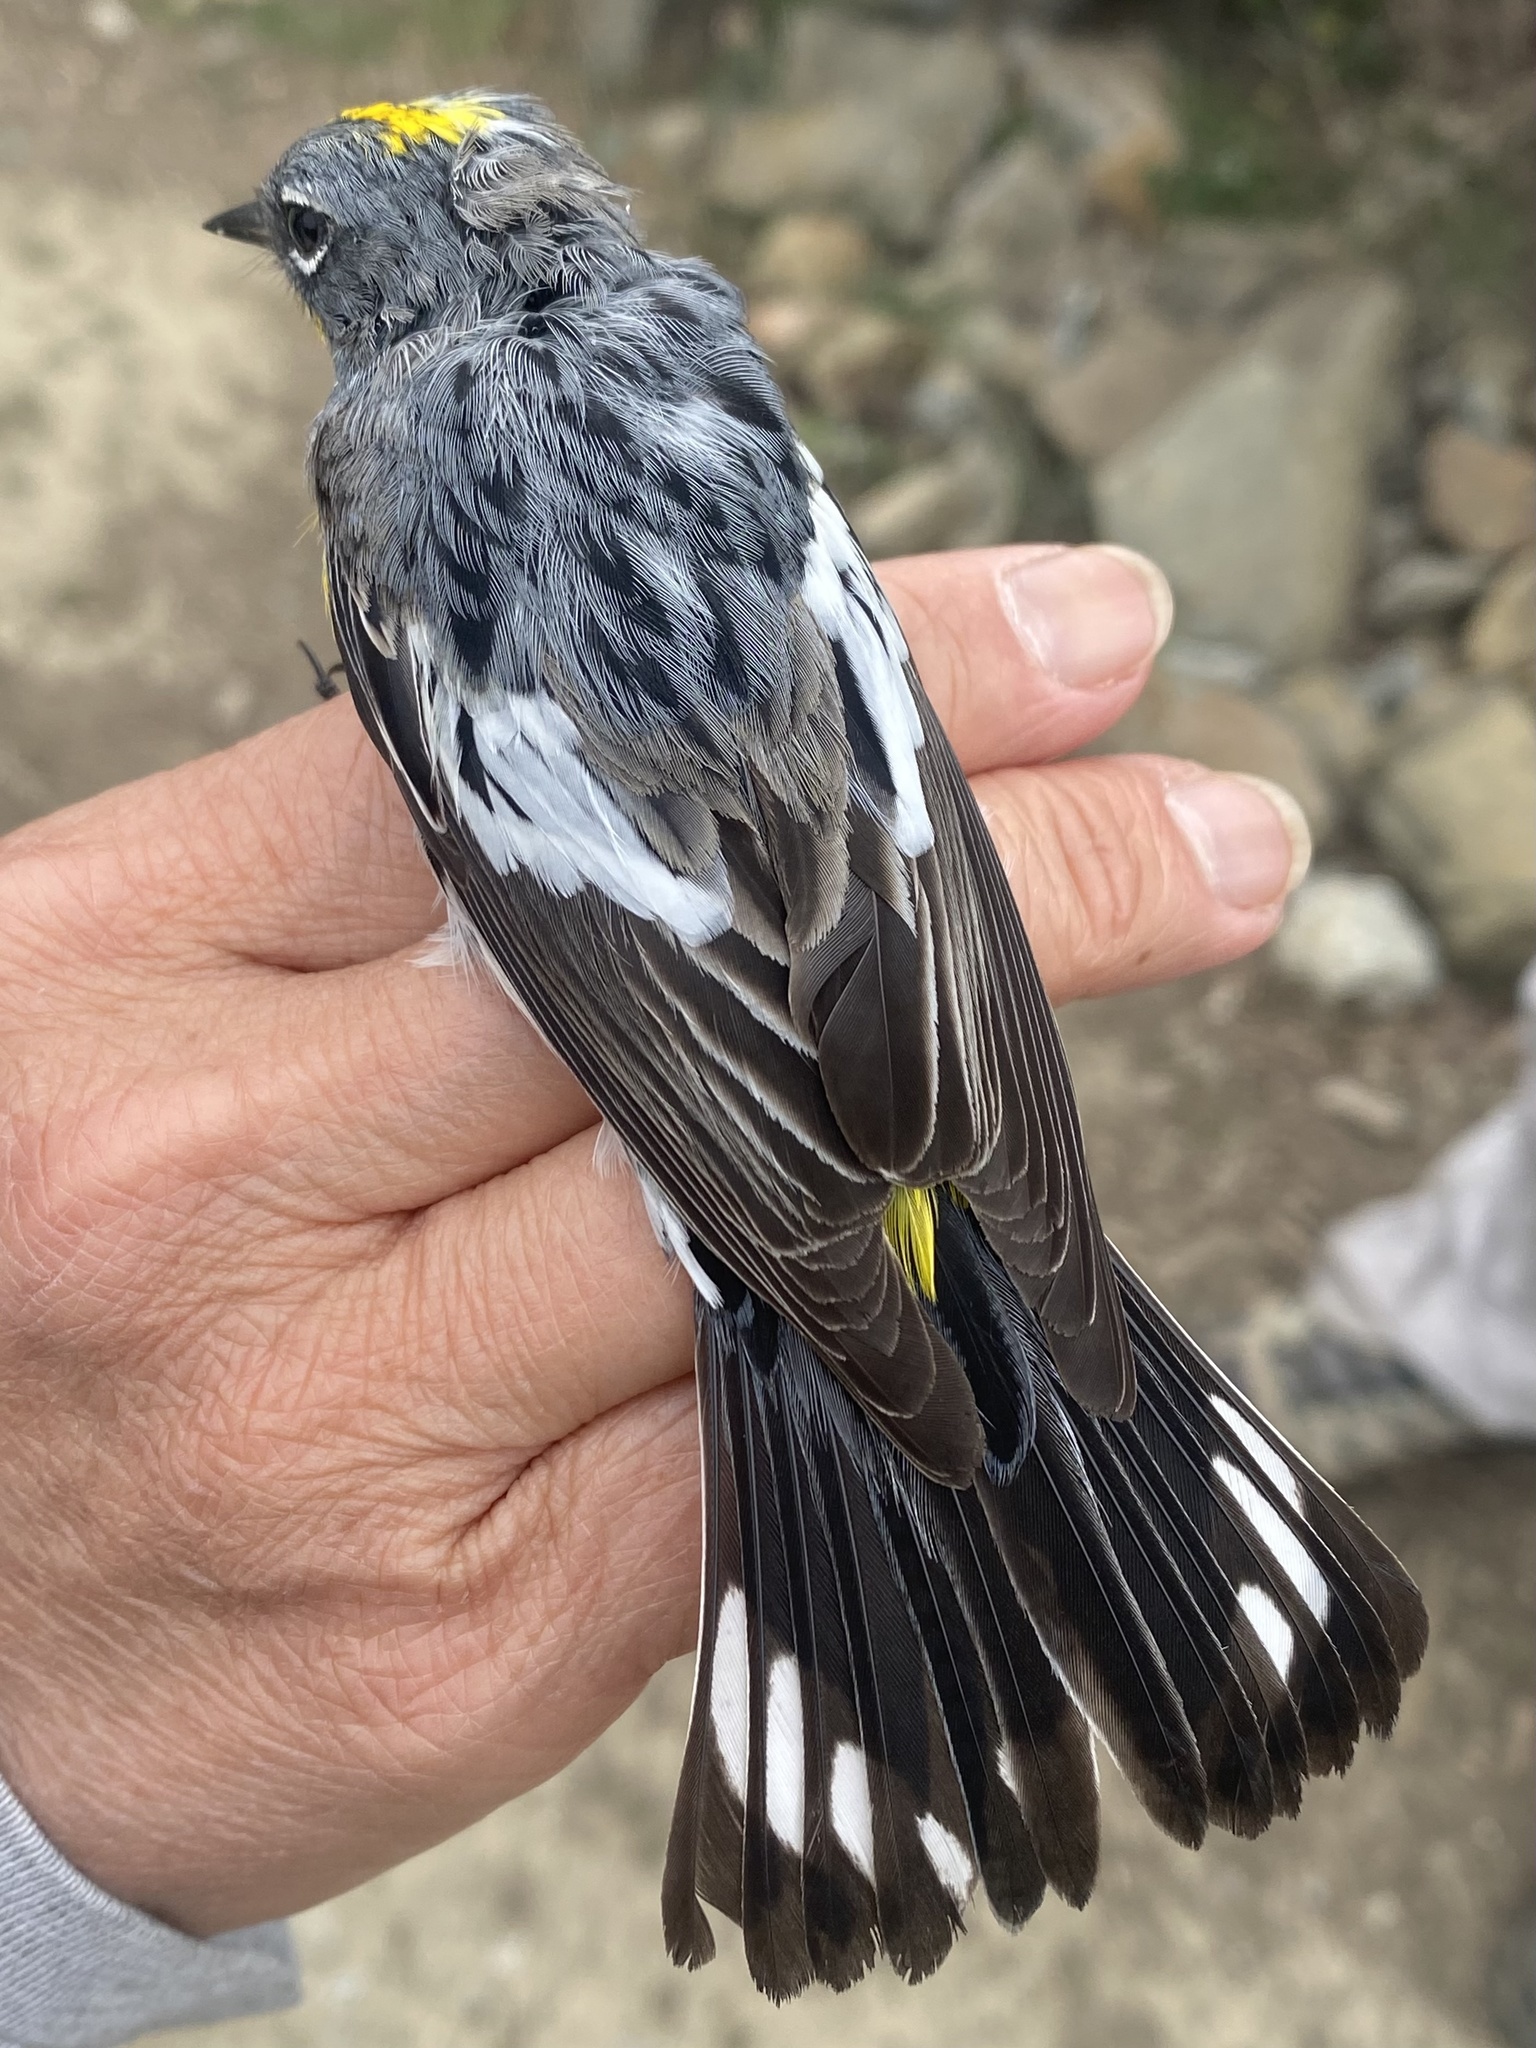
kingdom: Animalia
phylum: Chordata
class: Aves
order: Passeriformes
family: Parulidae
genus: Setophaga
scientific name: Setophaga auduboni
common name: Audubon's warbler
